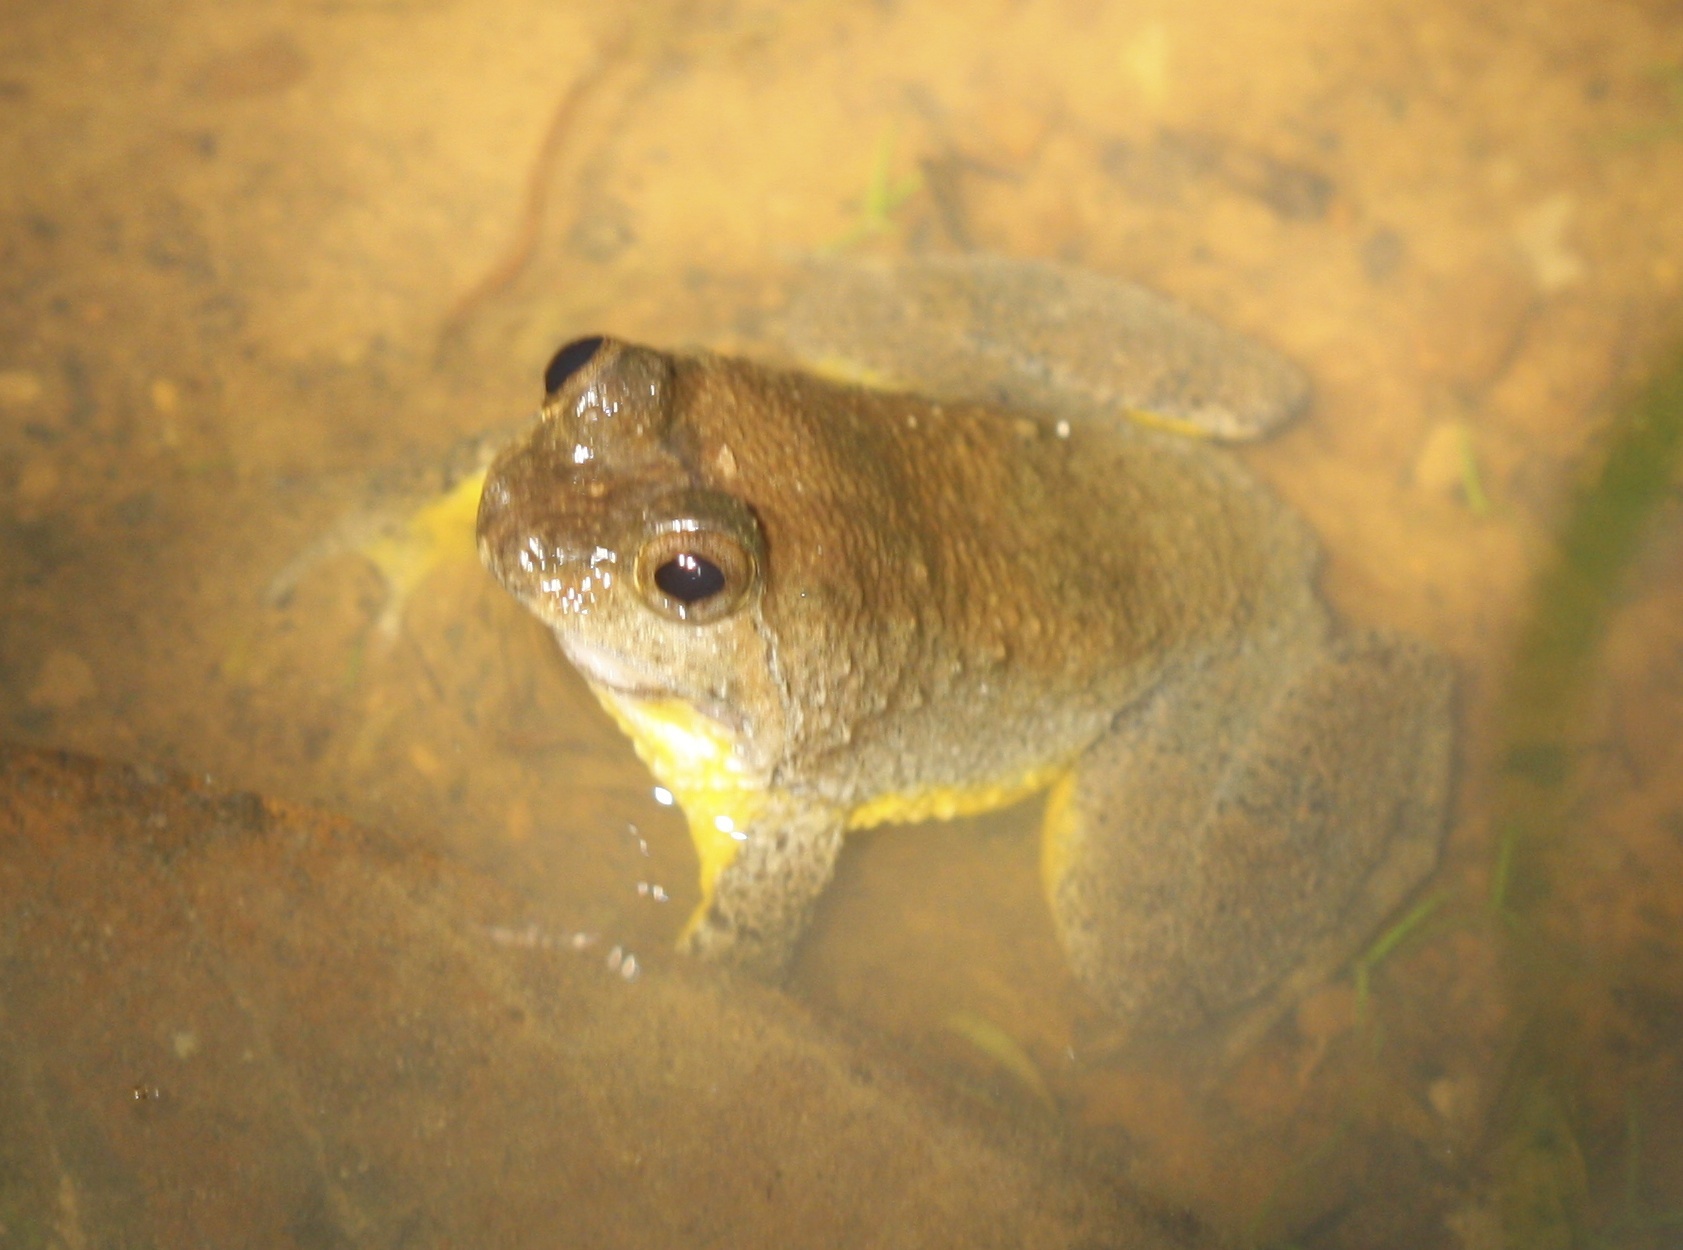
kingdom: Animalia
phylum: Chordata
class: Amphibia
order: Anura
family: Dicroglossidae
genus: Occidozyga
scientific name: Occidozyga sumatrana
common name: Puddle frog
